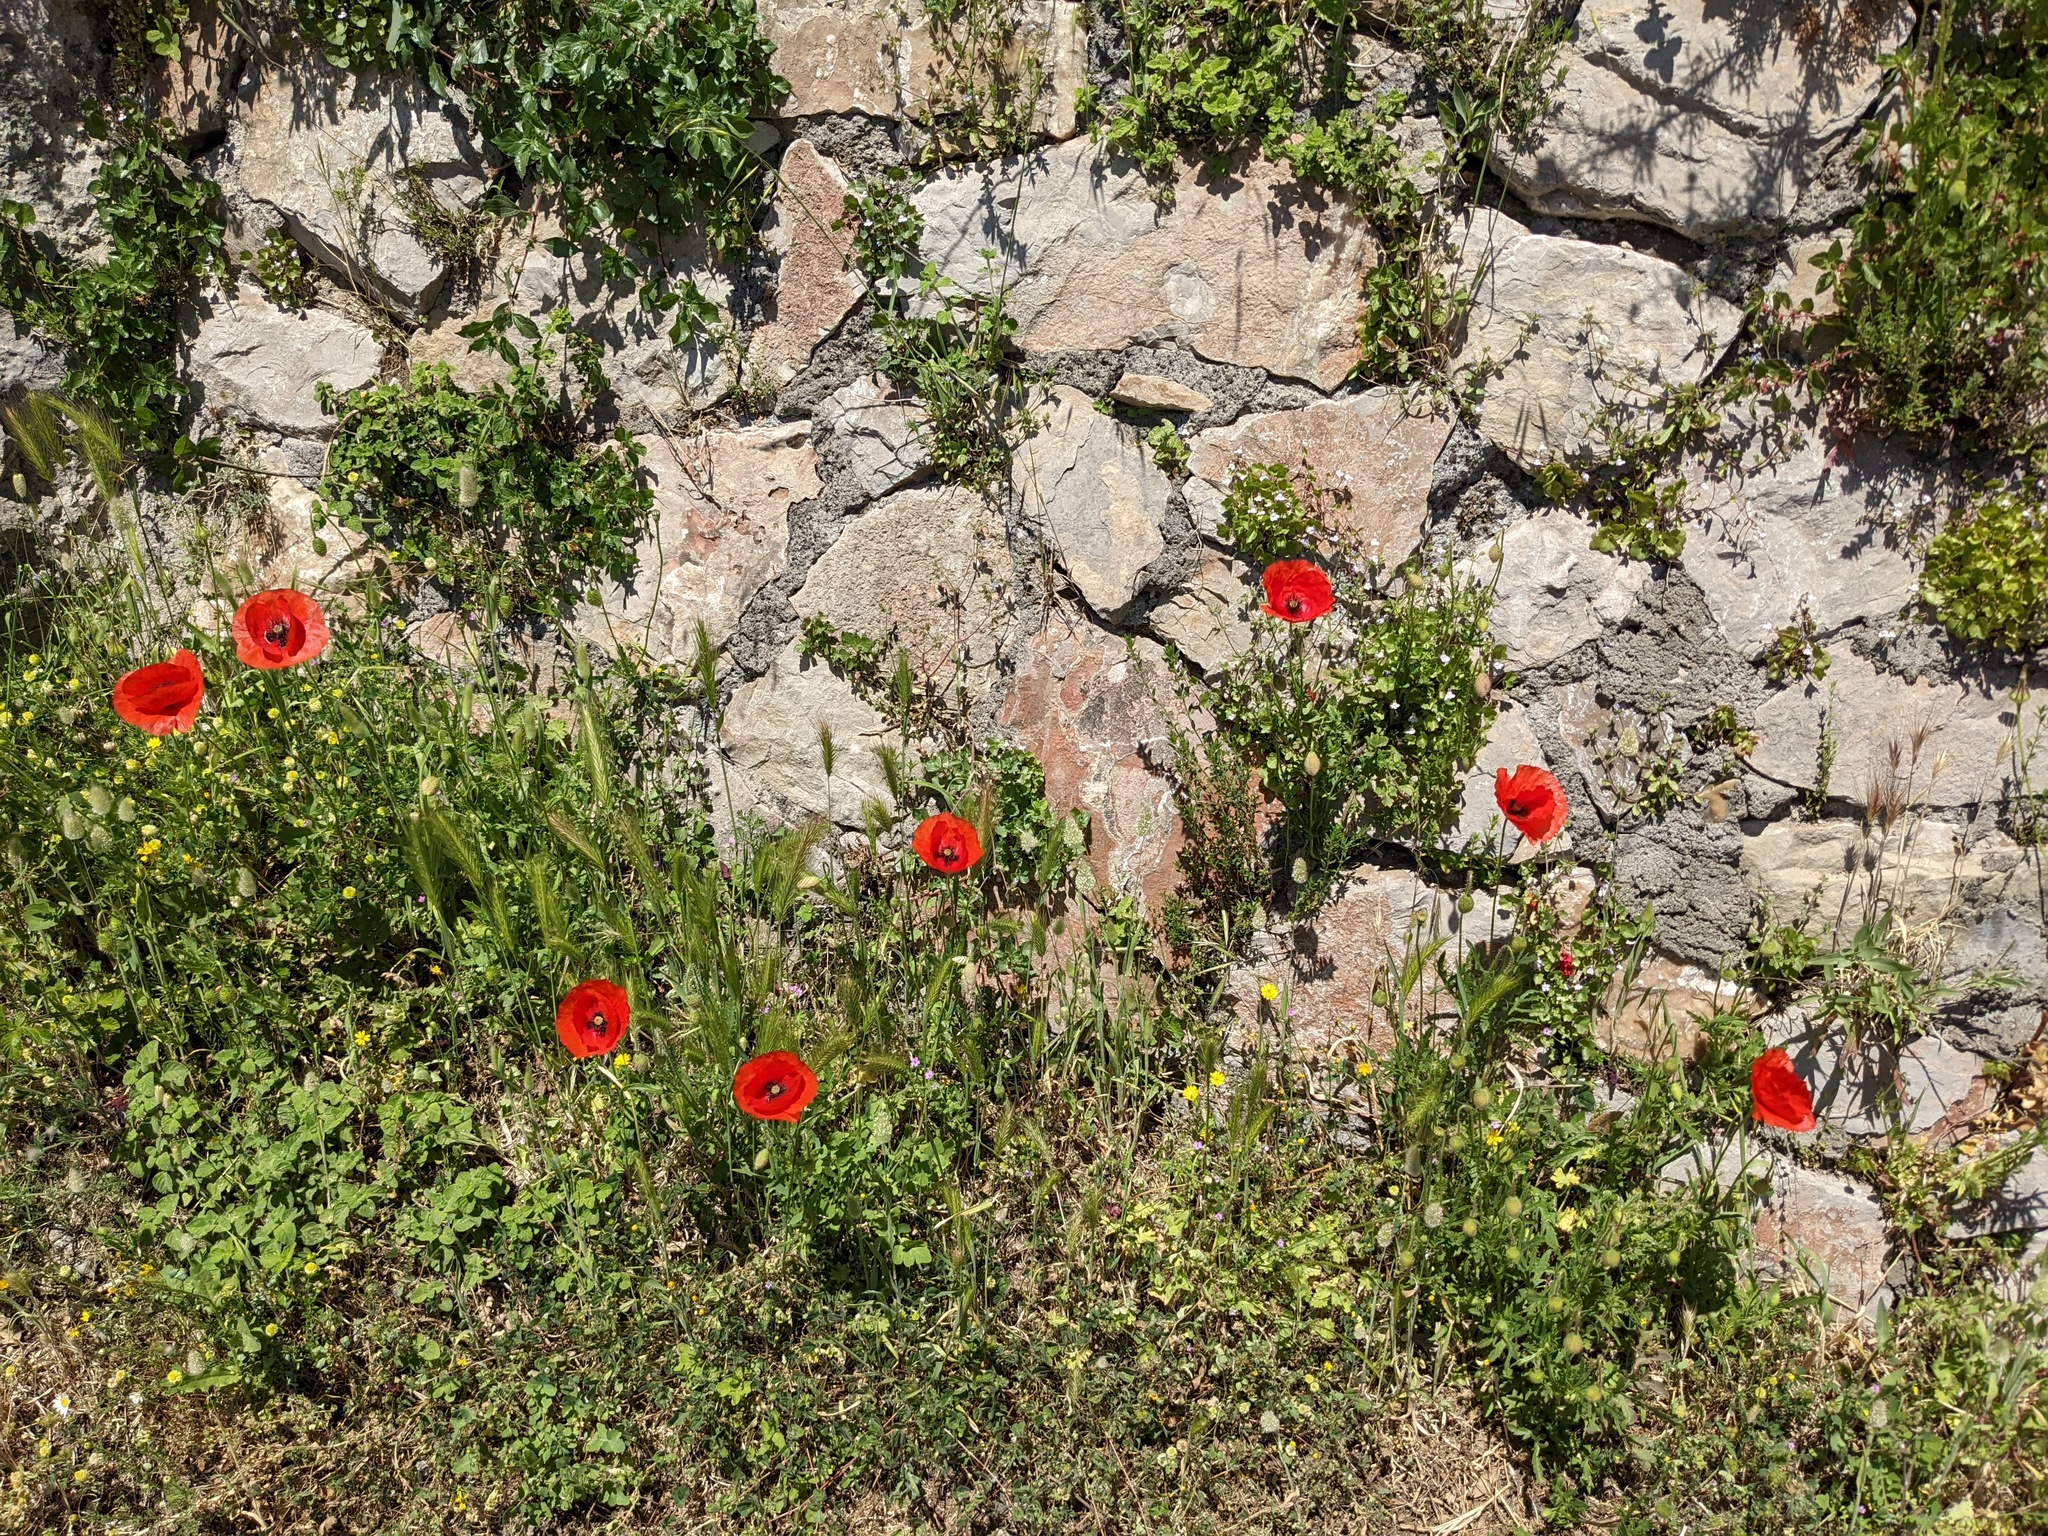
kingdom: Plantae
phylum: Tracheophyta
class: Magnoliopsida
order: Ranunculales
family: Papaveraceae
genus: Papaver
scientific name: Papaver rhoeas
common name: Corn poppy
